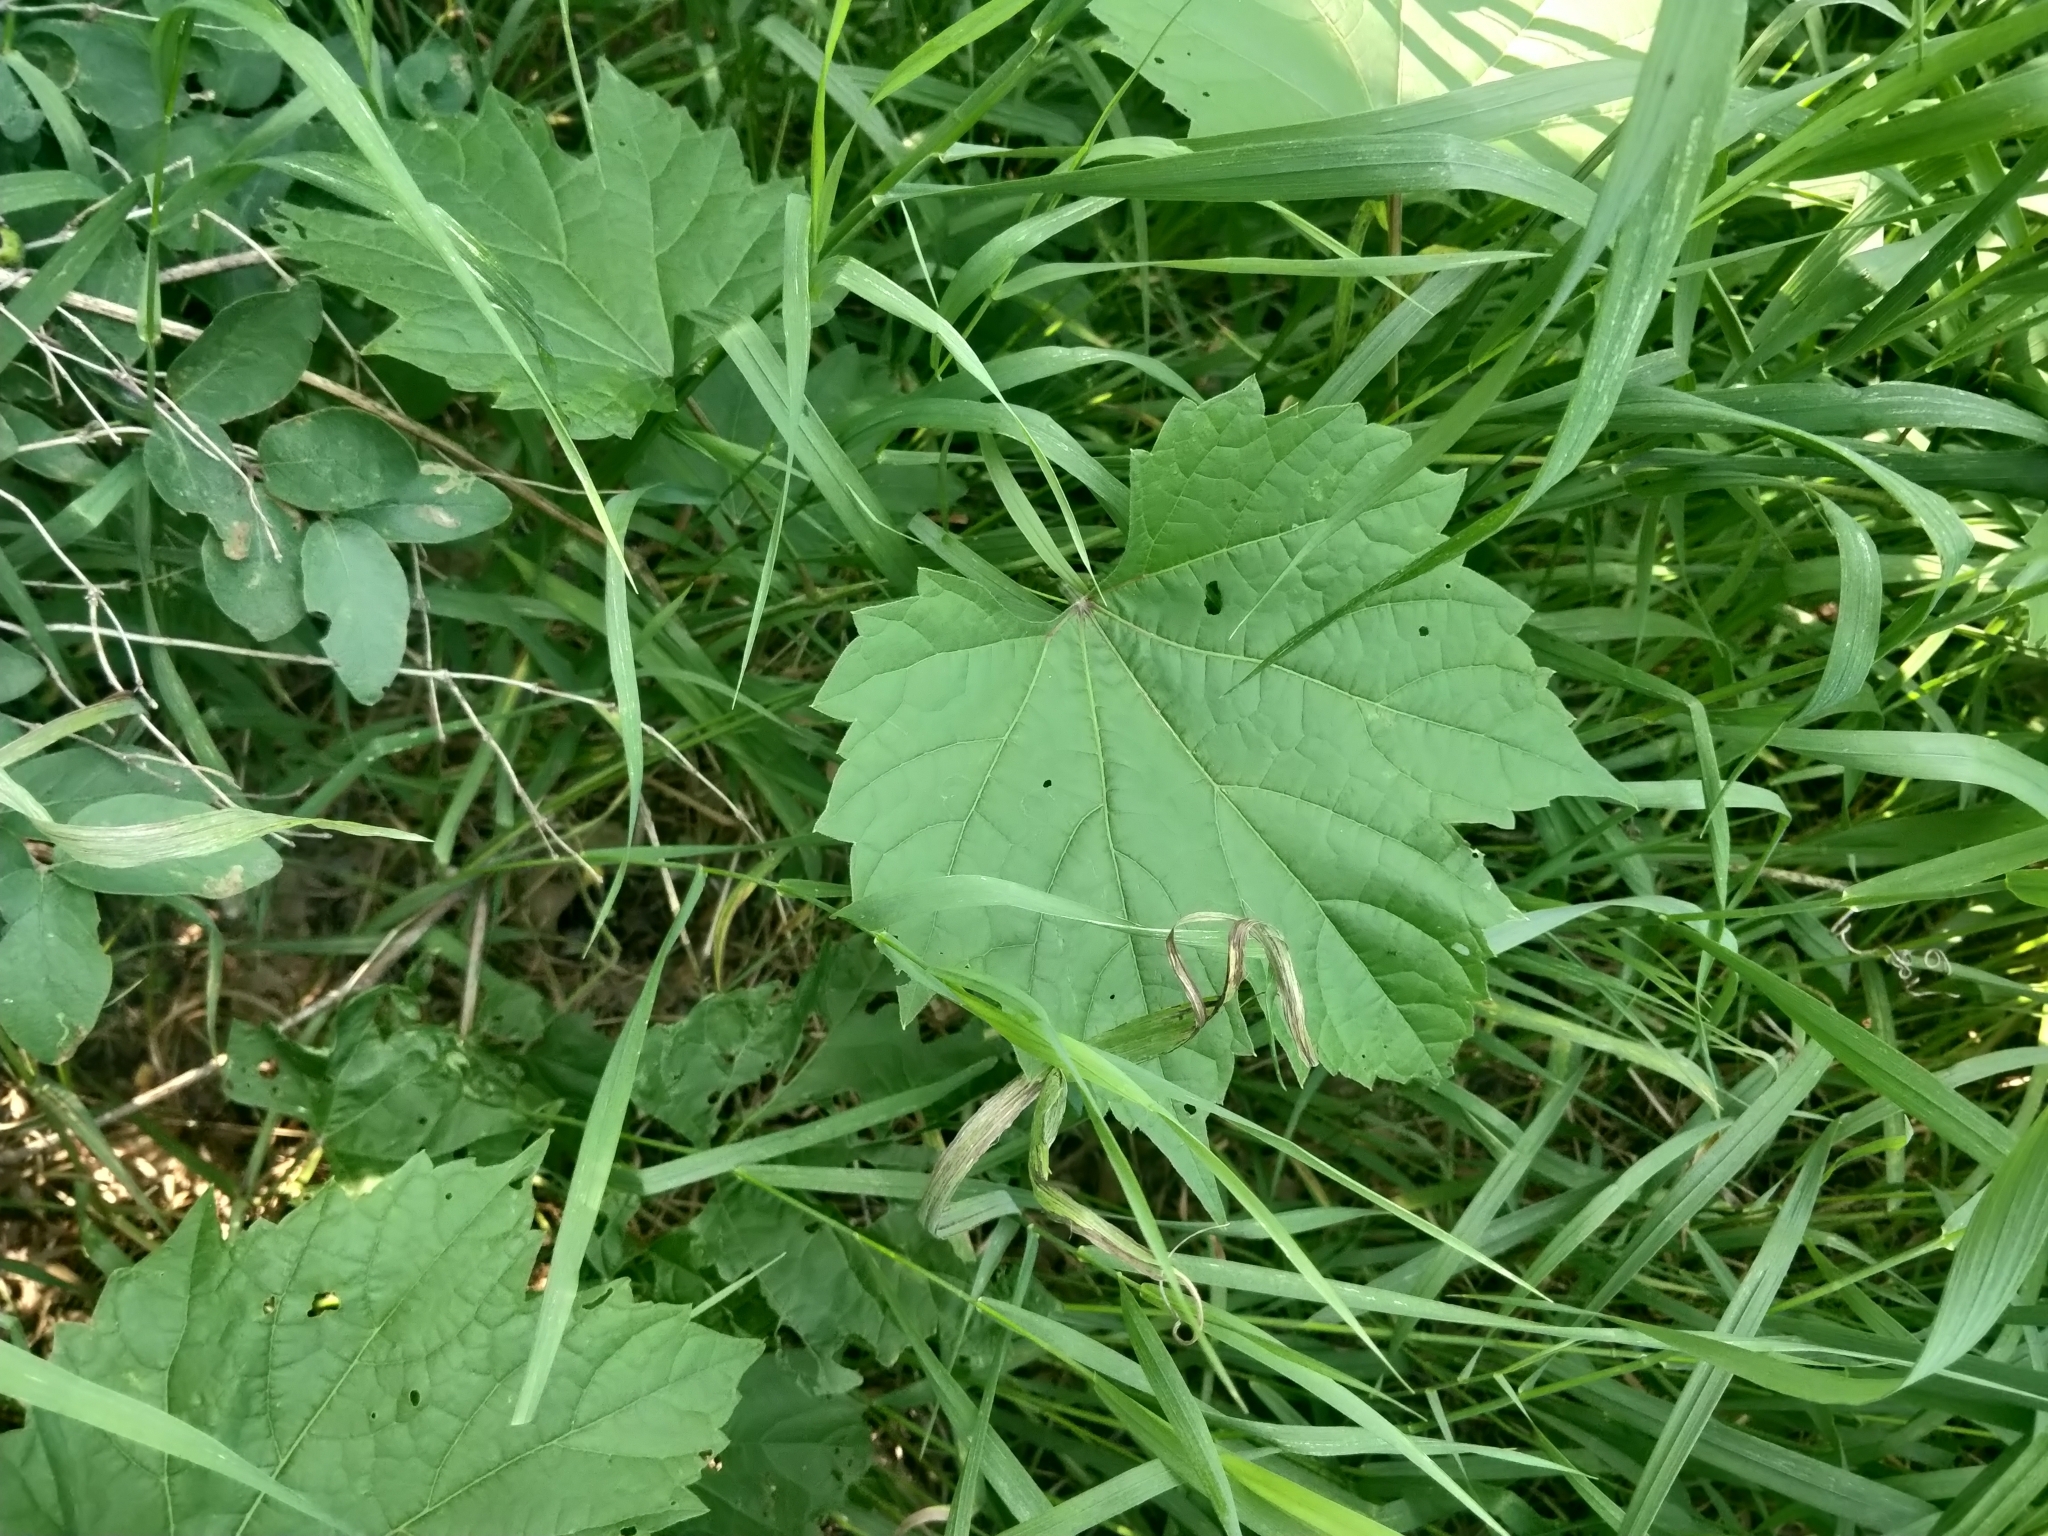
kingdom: Plantae
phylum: Tracheophyta
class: Magnoliopsida
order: Vitales
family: Vitaceae
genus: Vitis
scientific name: Vitis riparia
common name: Frost grape
